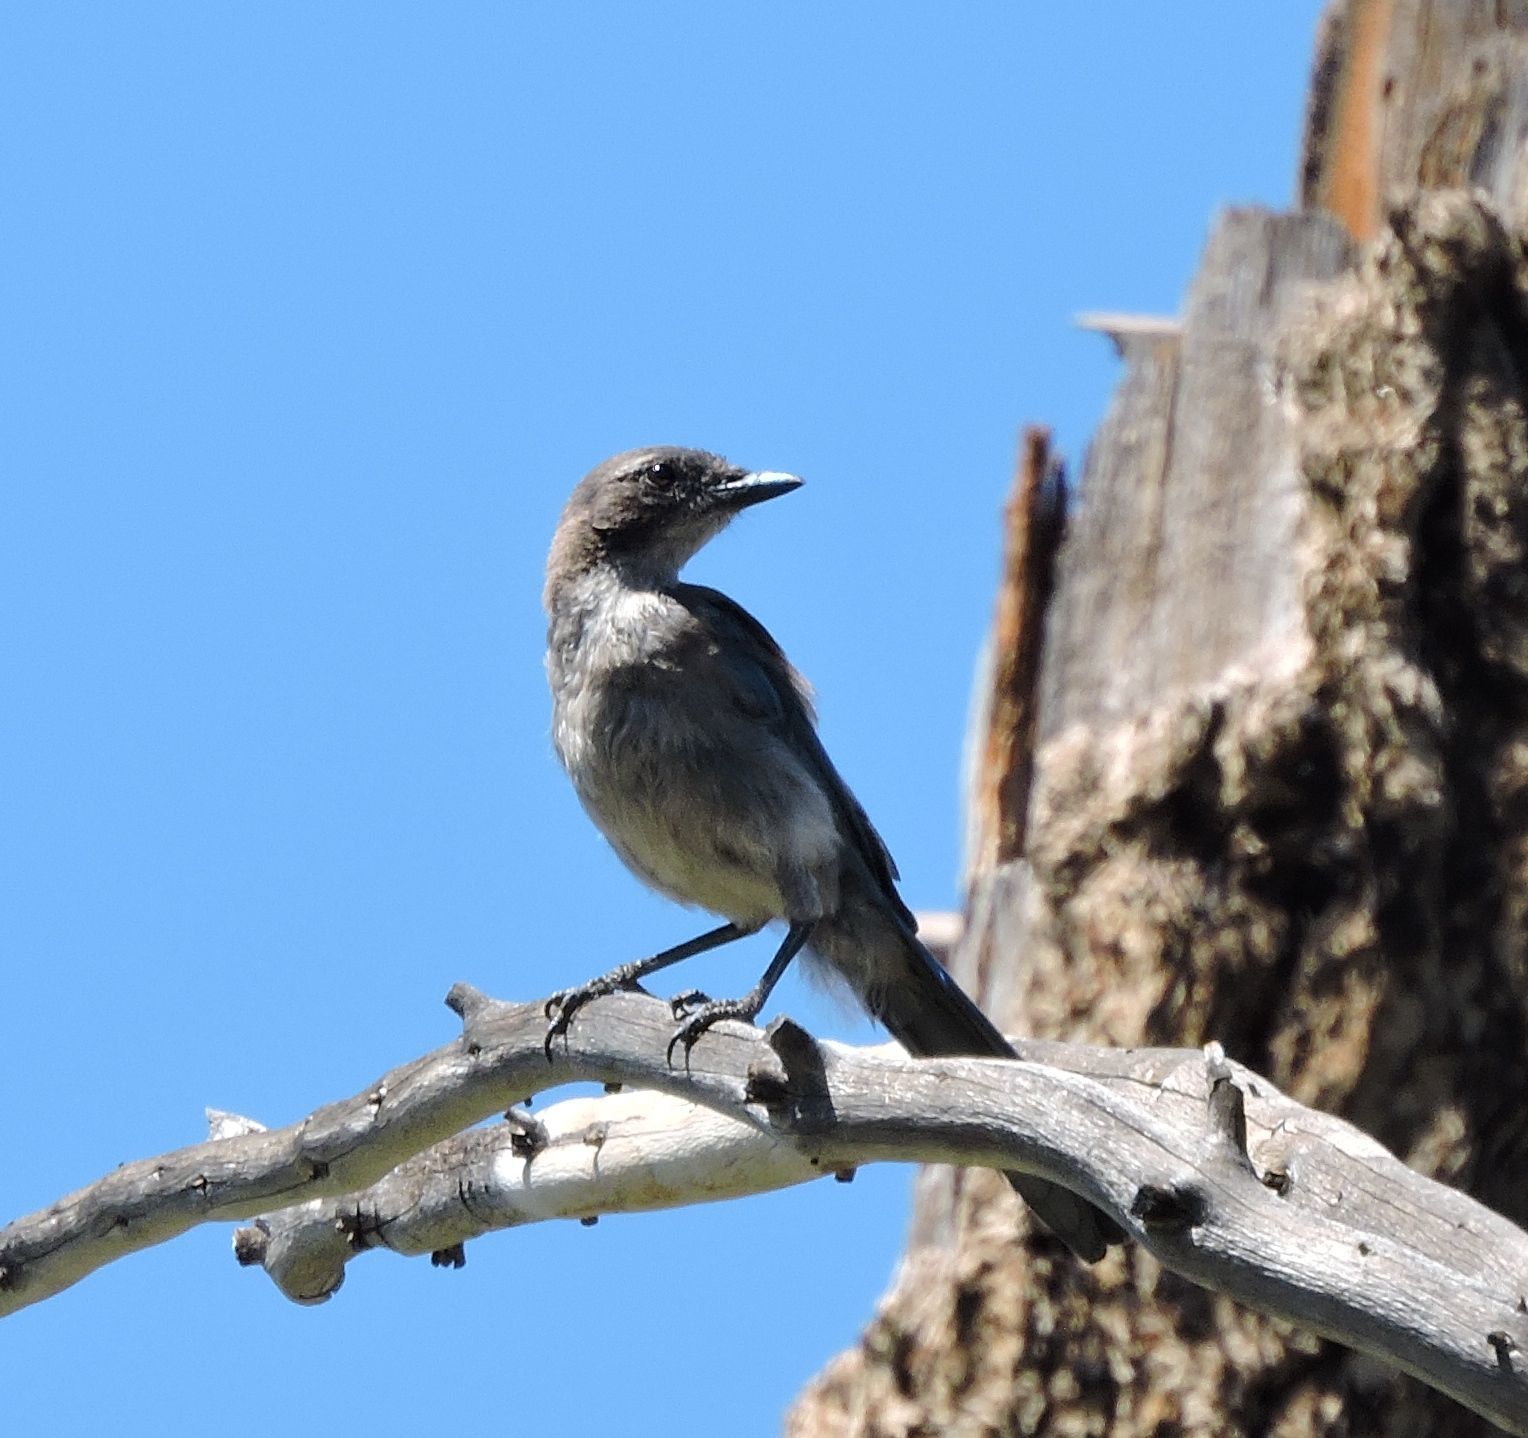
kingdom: Animalia
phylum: Chordata
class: Aves
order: Passeriformes
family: Corvidae
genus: Aphelocoma
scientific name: Aphelocoma californica
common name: California scrub-jay
